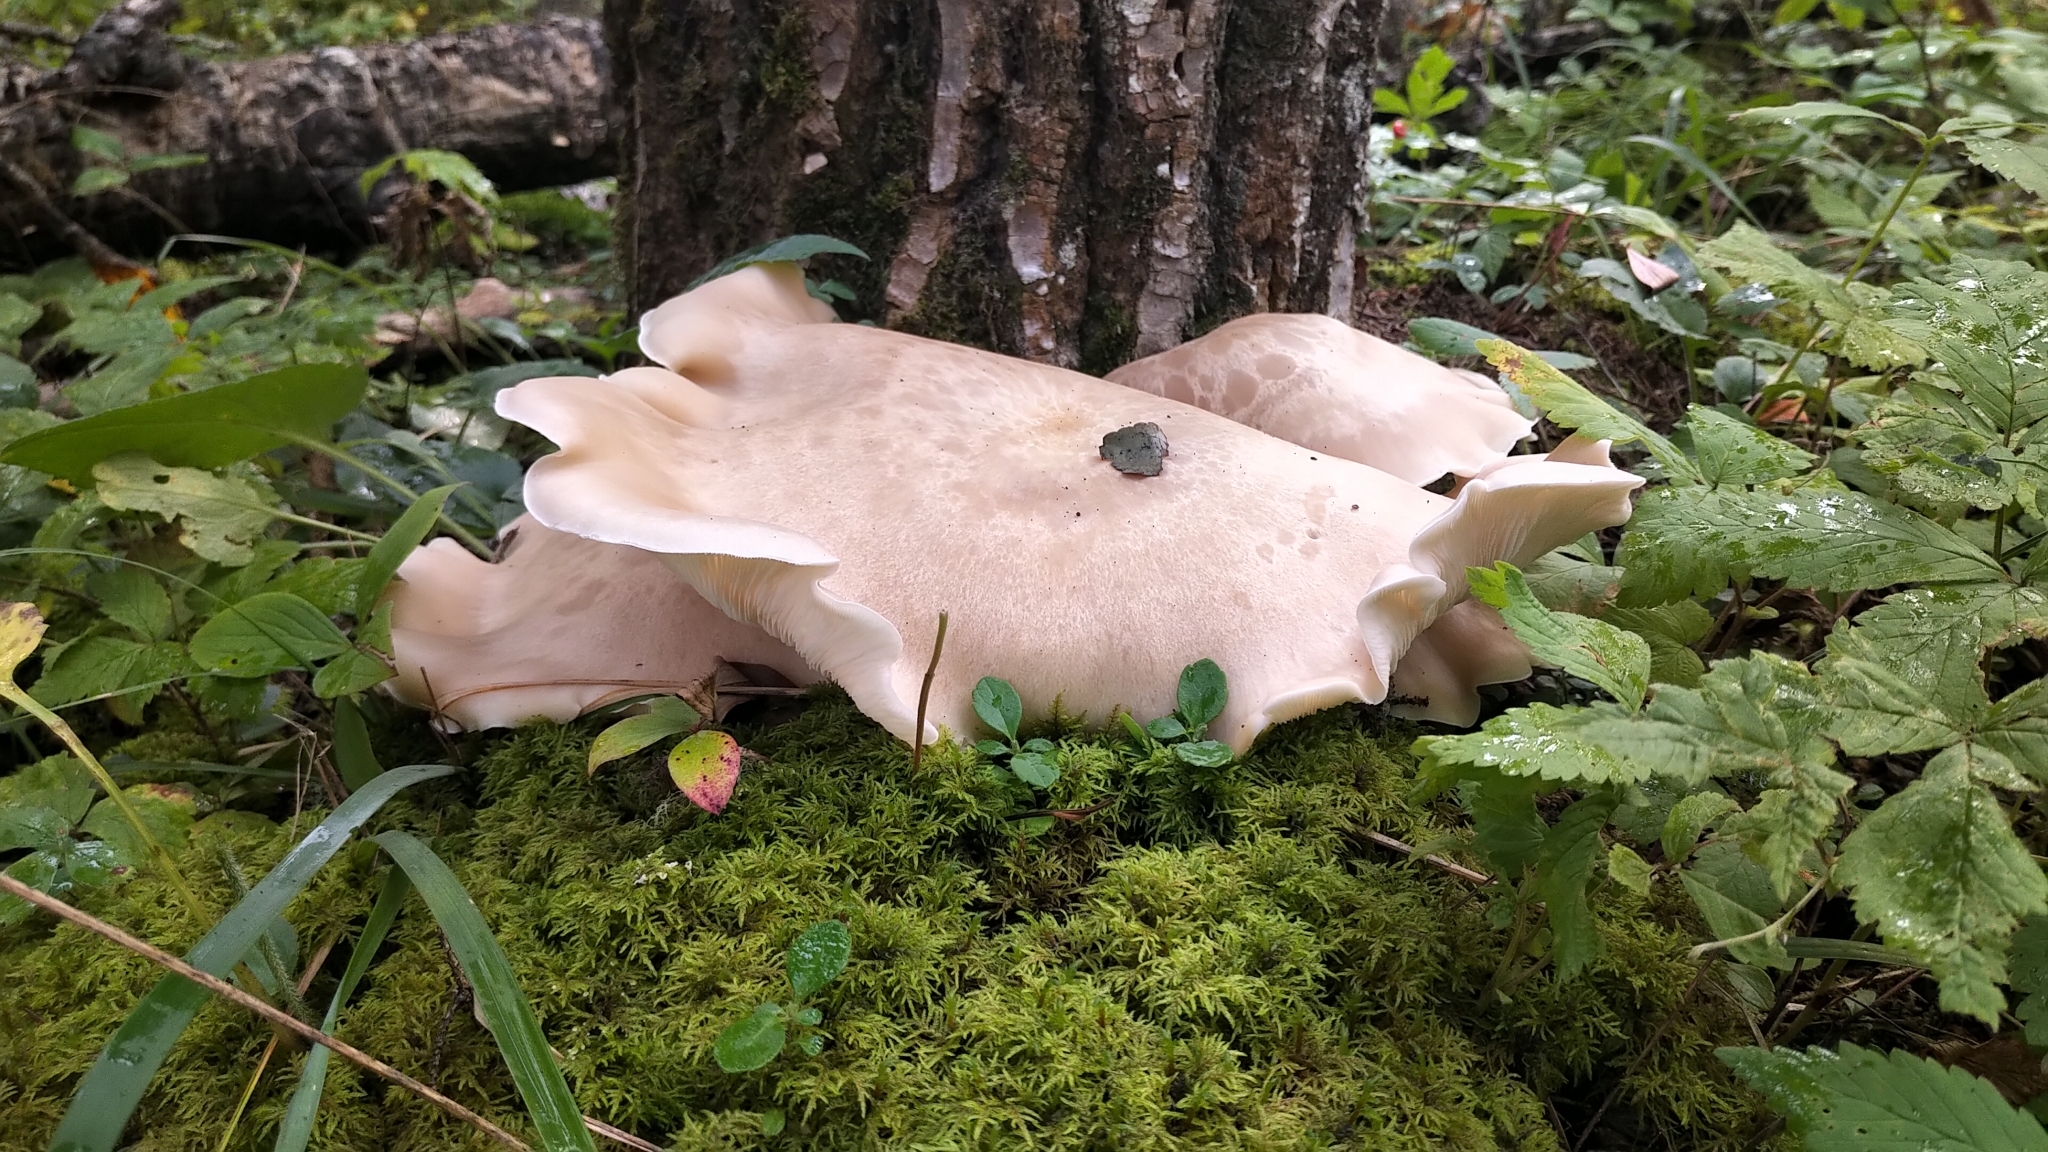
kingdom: Fungi
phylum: Basidiomycota
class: Agaricomycetes
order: Agaricales
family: Lyophyllaceae
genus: Hypsizygus
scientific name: Hypsizygus tessulatus
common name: Beech mushroom
